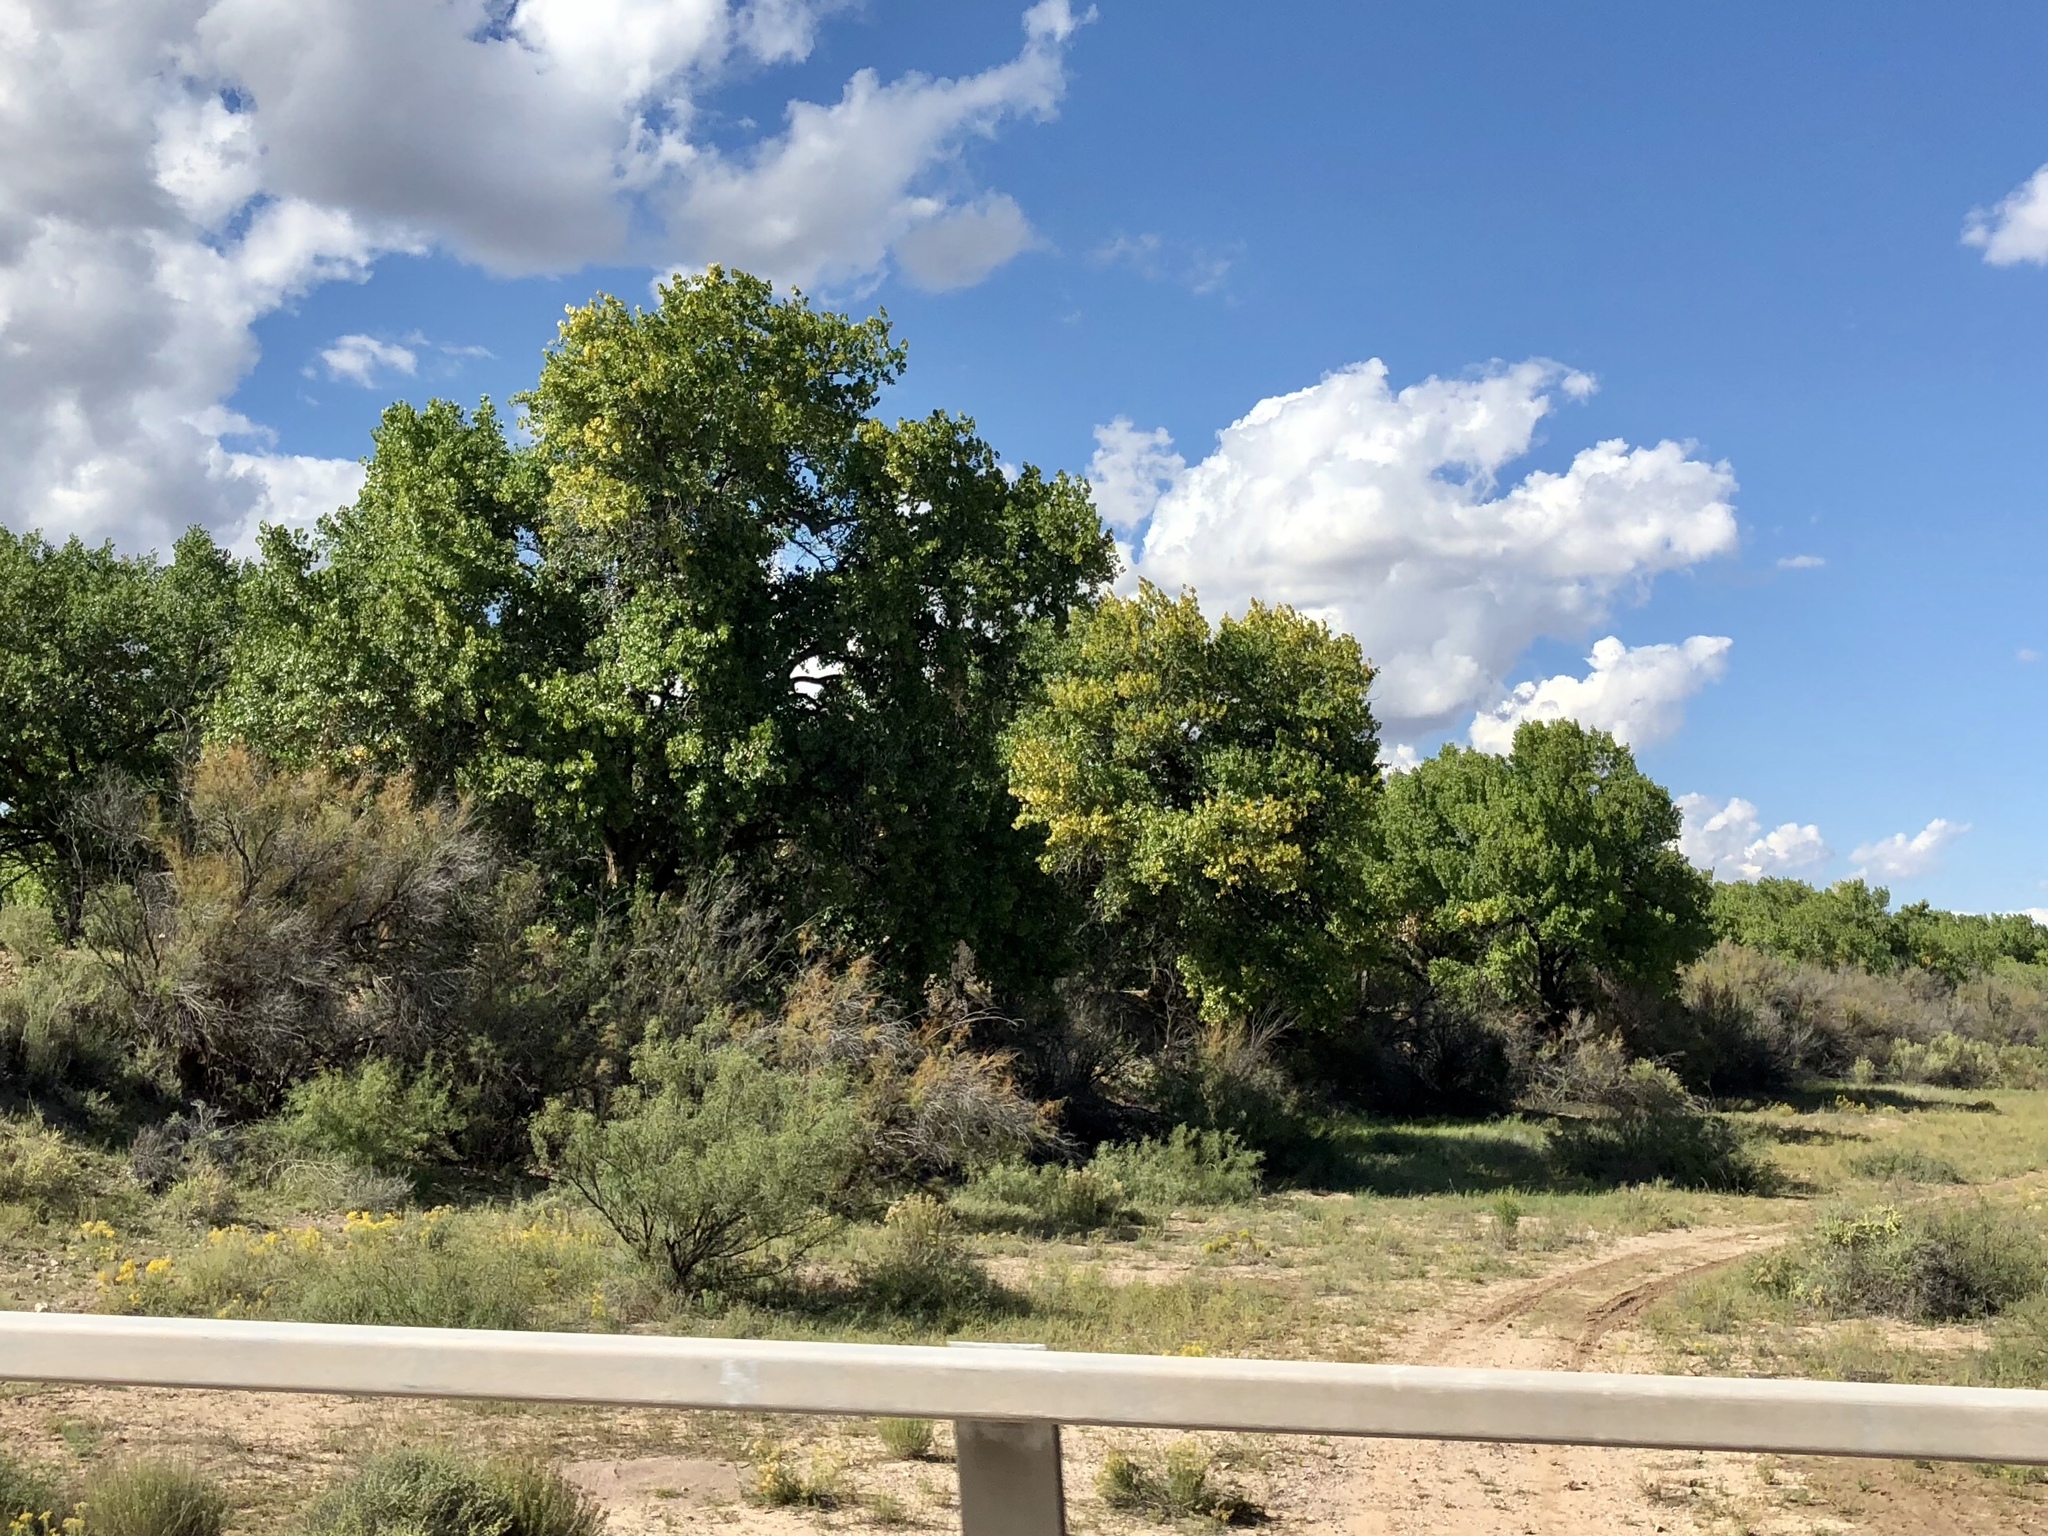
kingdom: Plantae
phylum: Tracheophyta
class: Magnoliopsida
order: Malpighiales
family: Salicaceae
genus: Populus
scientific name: Populus fremontii
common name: Fremont's cottonwood
